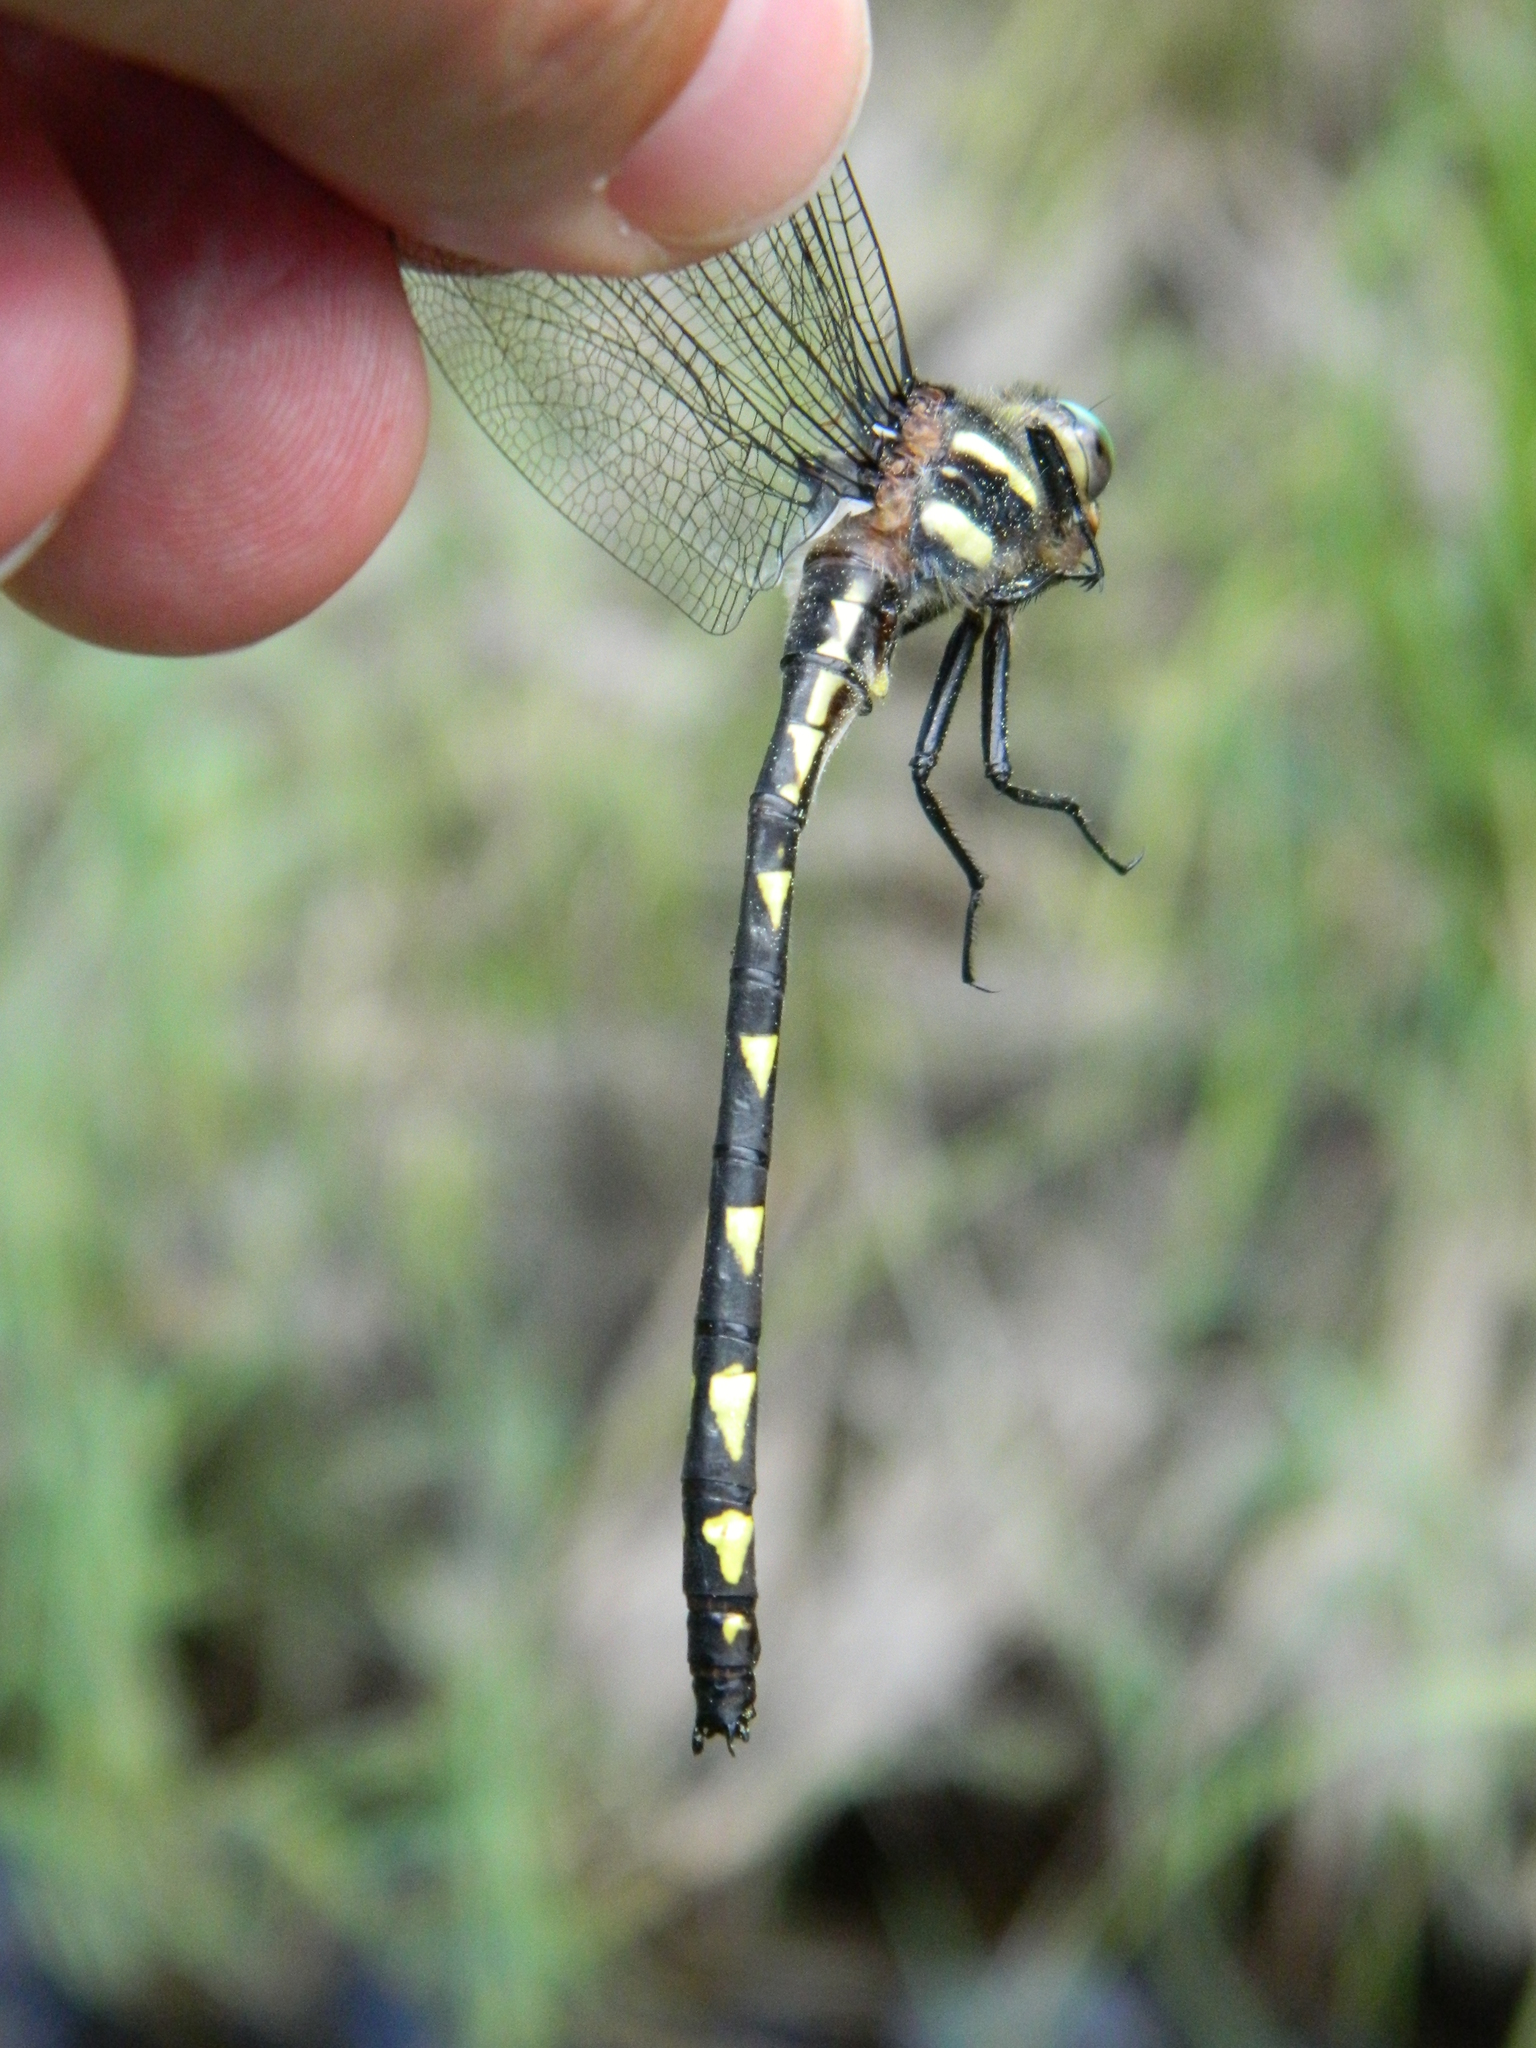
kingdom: Animalia
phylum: Arthropoda
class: Insecta
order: Odonata
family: Cordulegastridae
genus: Cordulegaster
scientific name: Cordulegaster diastatops
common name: Delta-spotted spiketail
